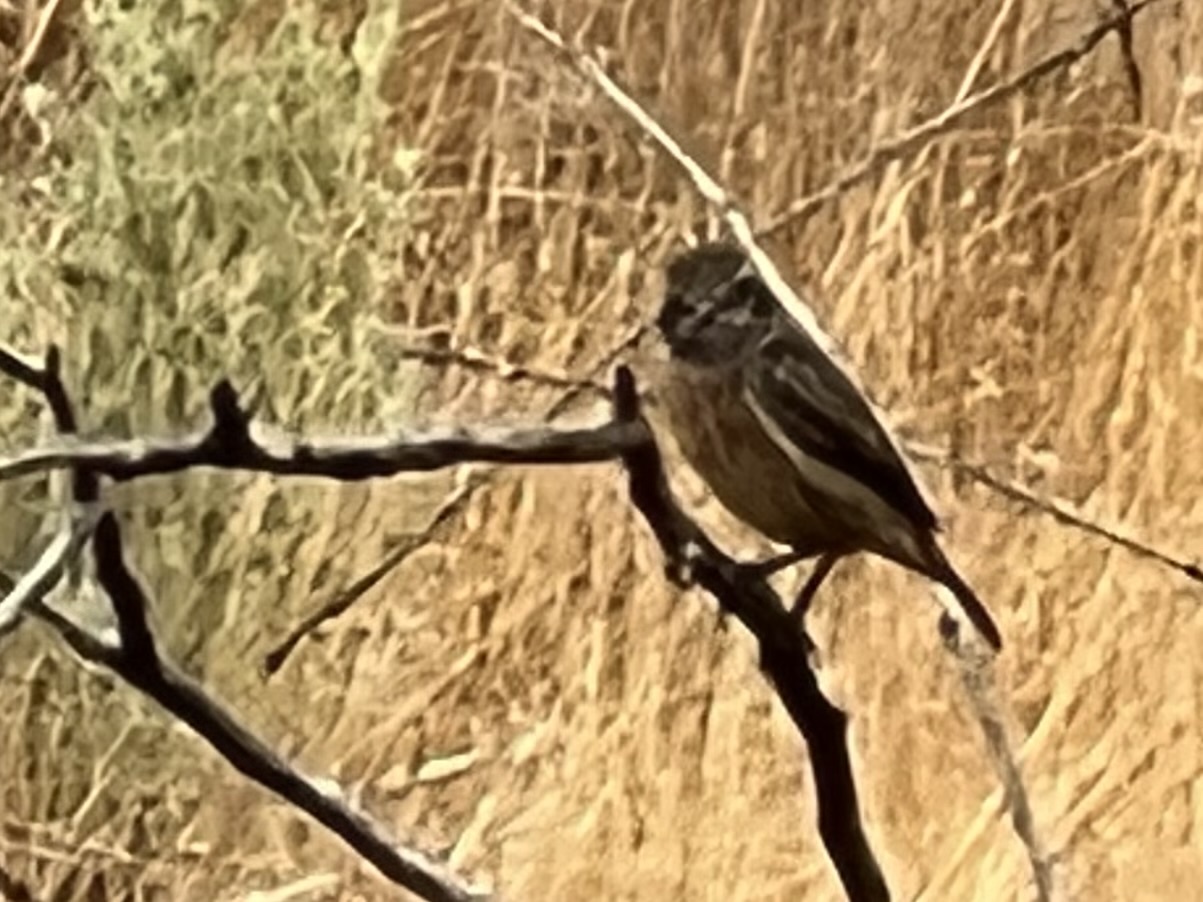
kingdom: Animalia
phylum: Chordata
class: Aves
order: Passeriformes
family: Muscicapidae
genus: Saxicola
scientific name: Saxicola rubicola
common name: European stonechat
